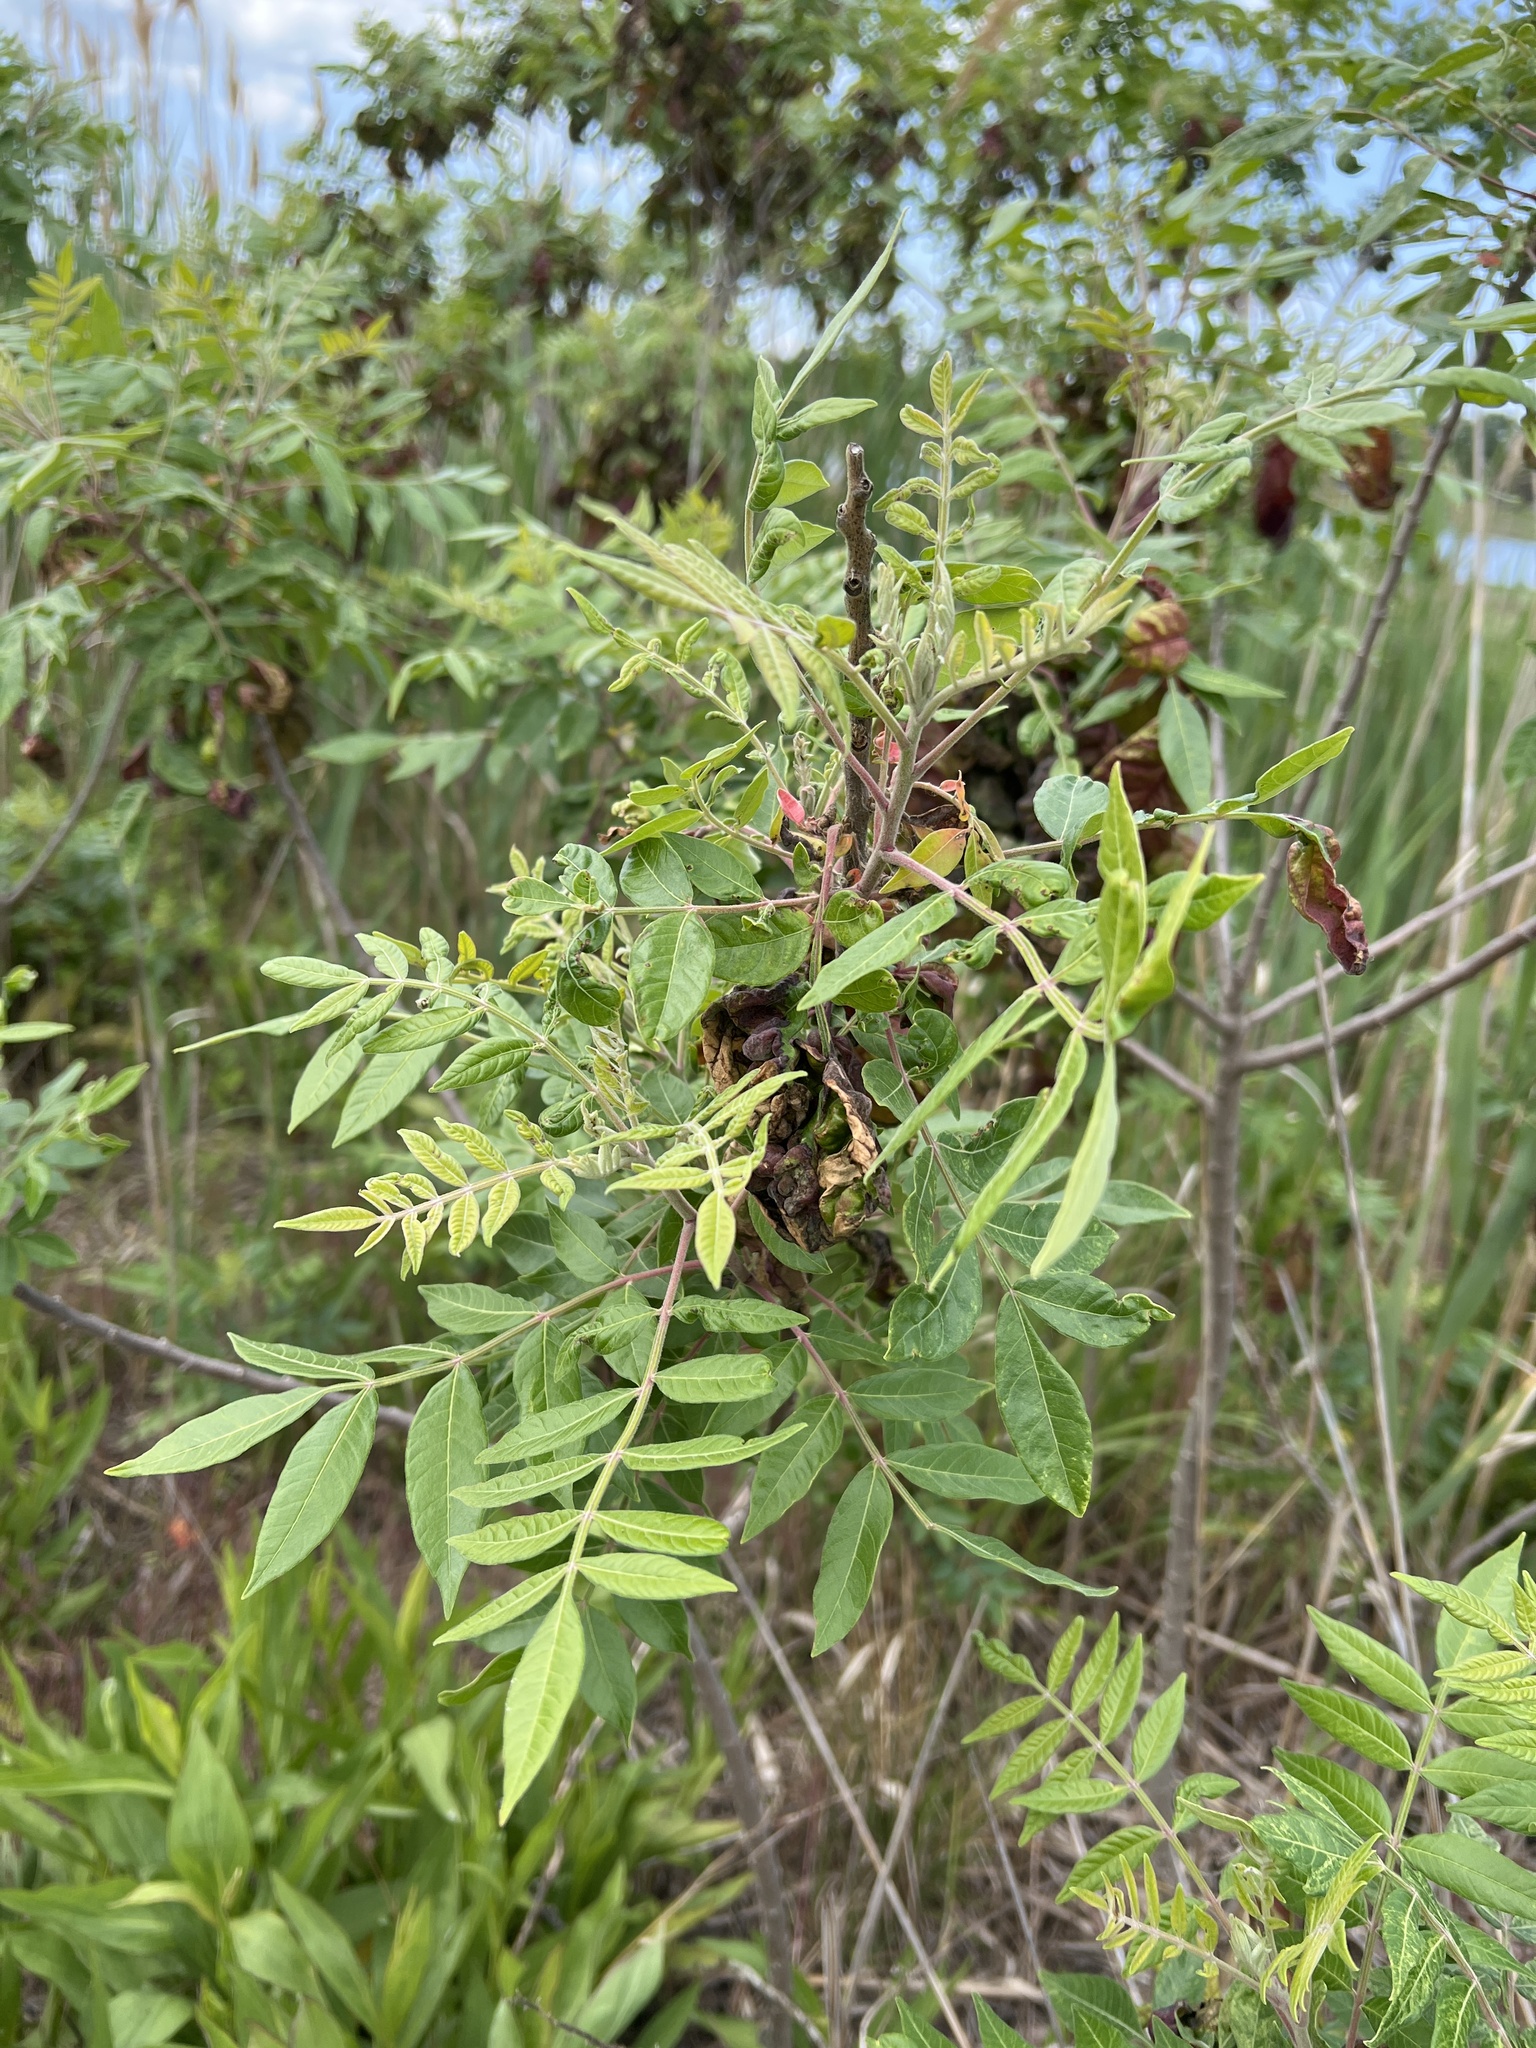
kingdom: Plantae
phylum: Tracheophyta
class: Magnoliopsida
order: Sapindales
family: Anacardiaceae
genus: Rhus
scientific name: Rhus copallina
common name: Shining sumac
